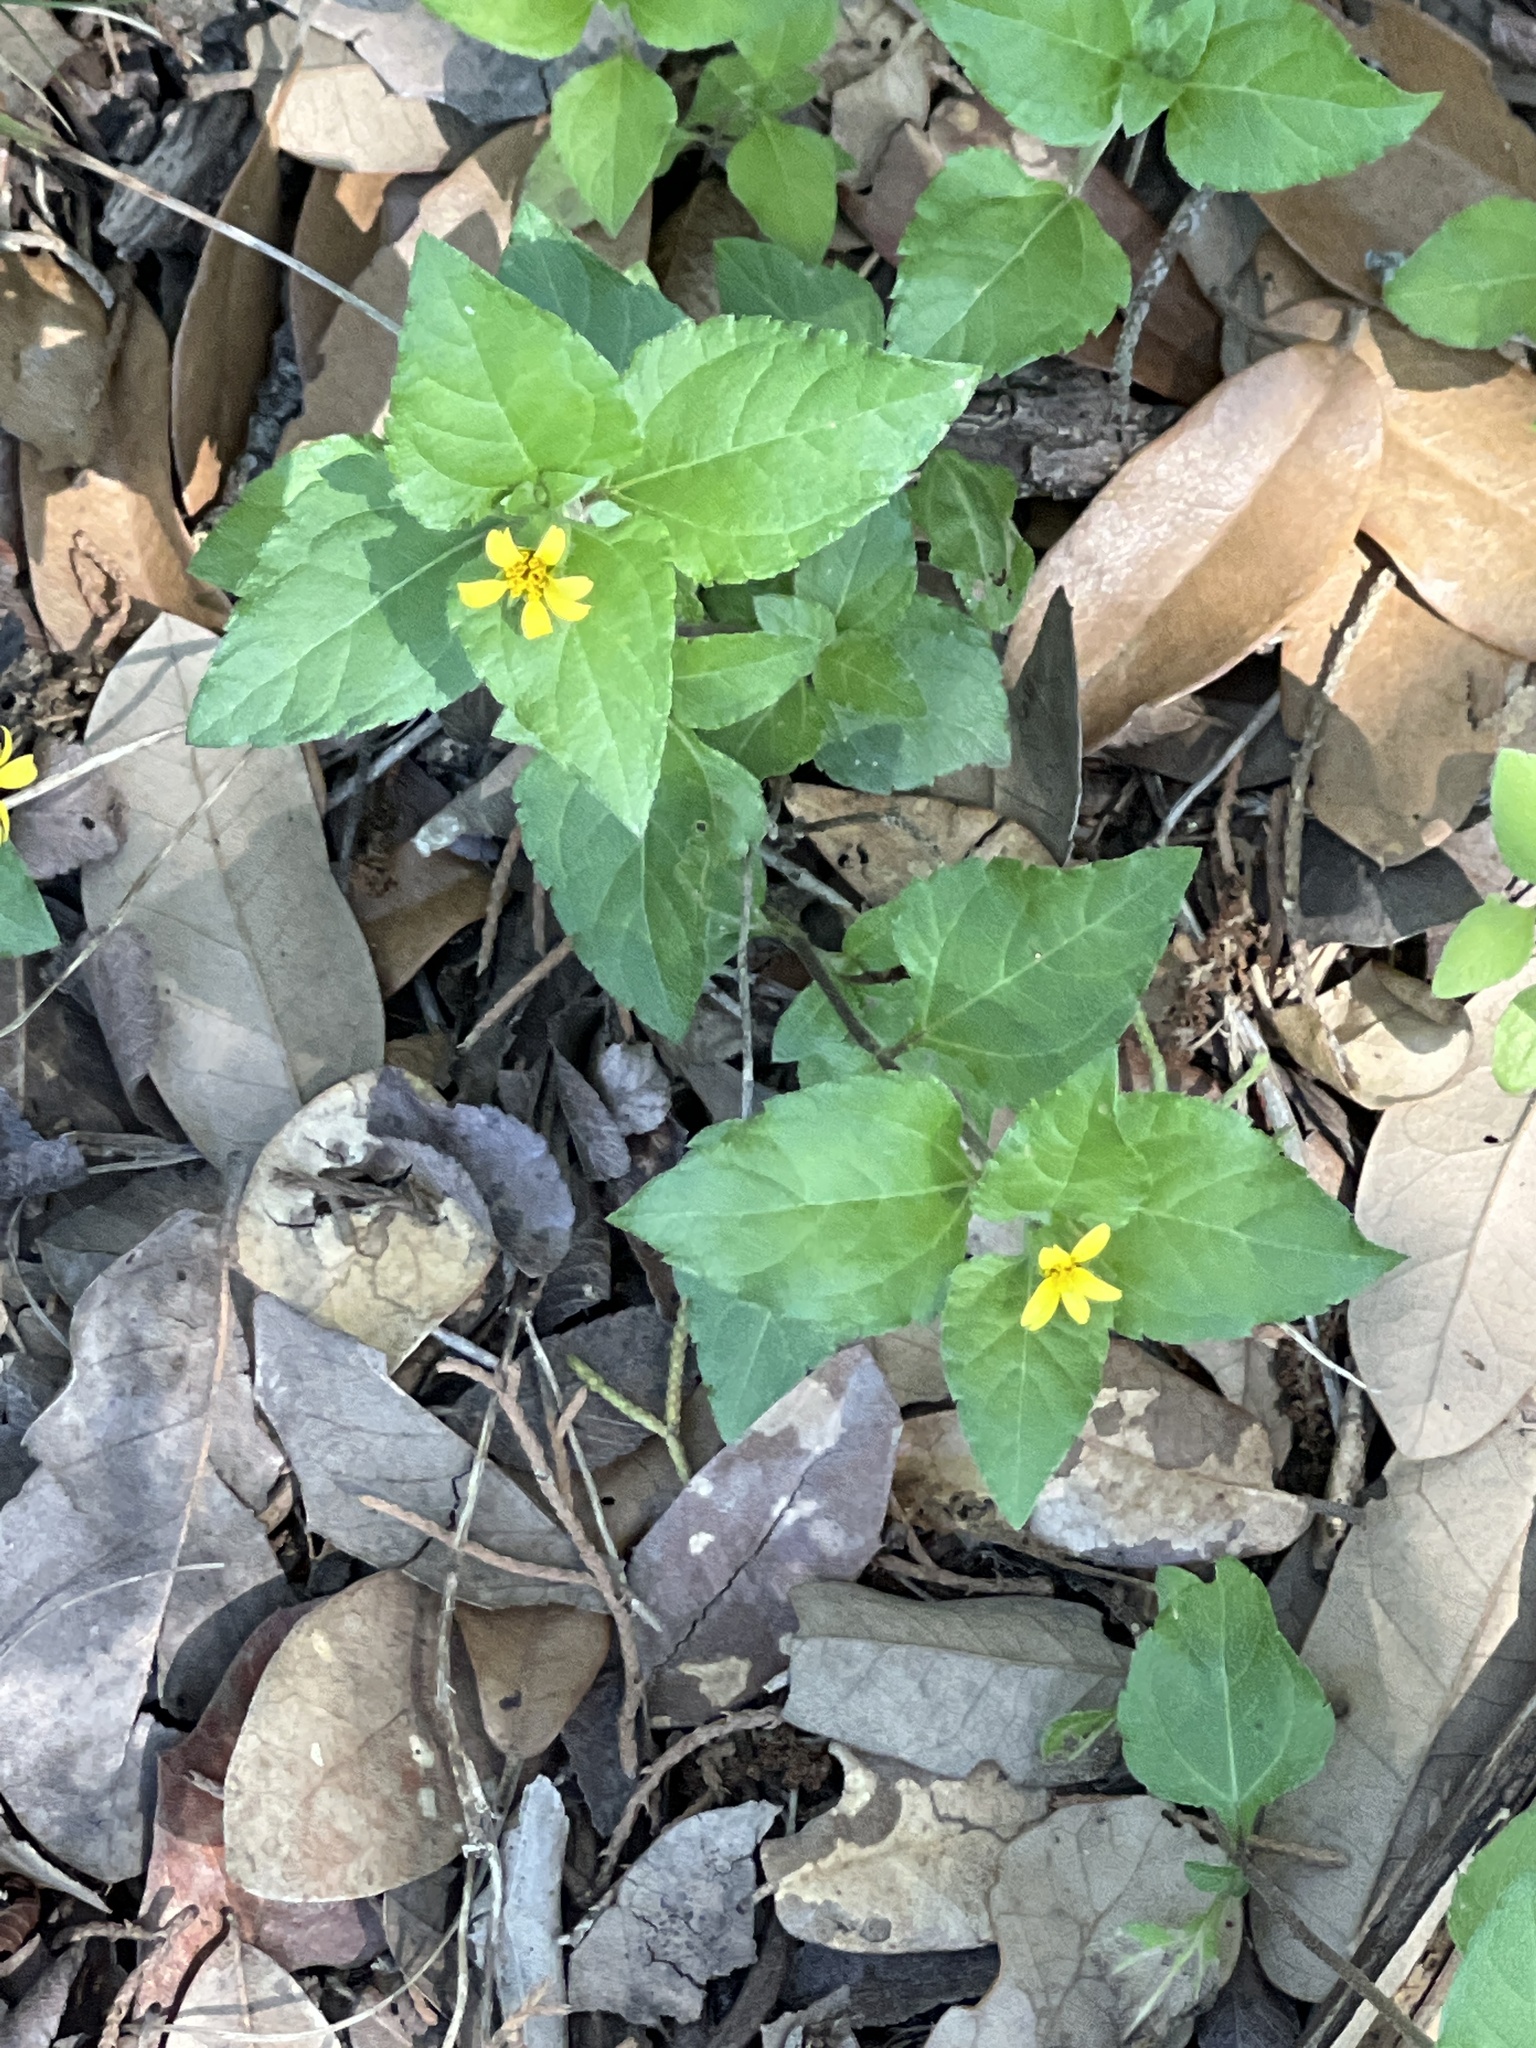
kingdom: Plantae
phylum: Tracheophyta
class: Magnoliopsida
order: Asterales
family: Asteraceae
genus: Calyptocarpus
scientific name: Calyptocarpus vialis
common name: Straggler daisy
